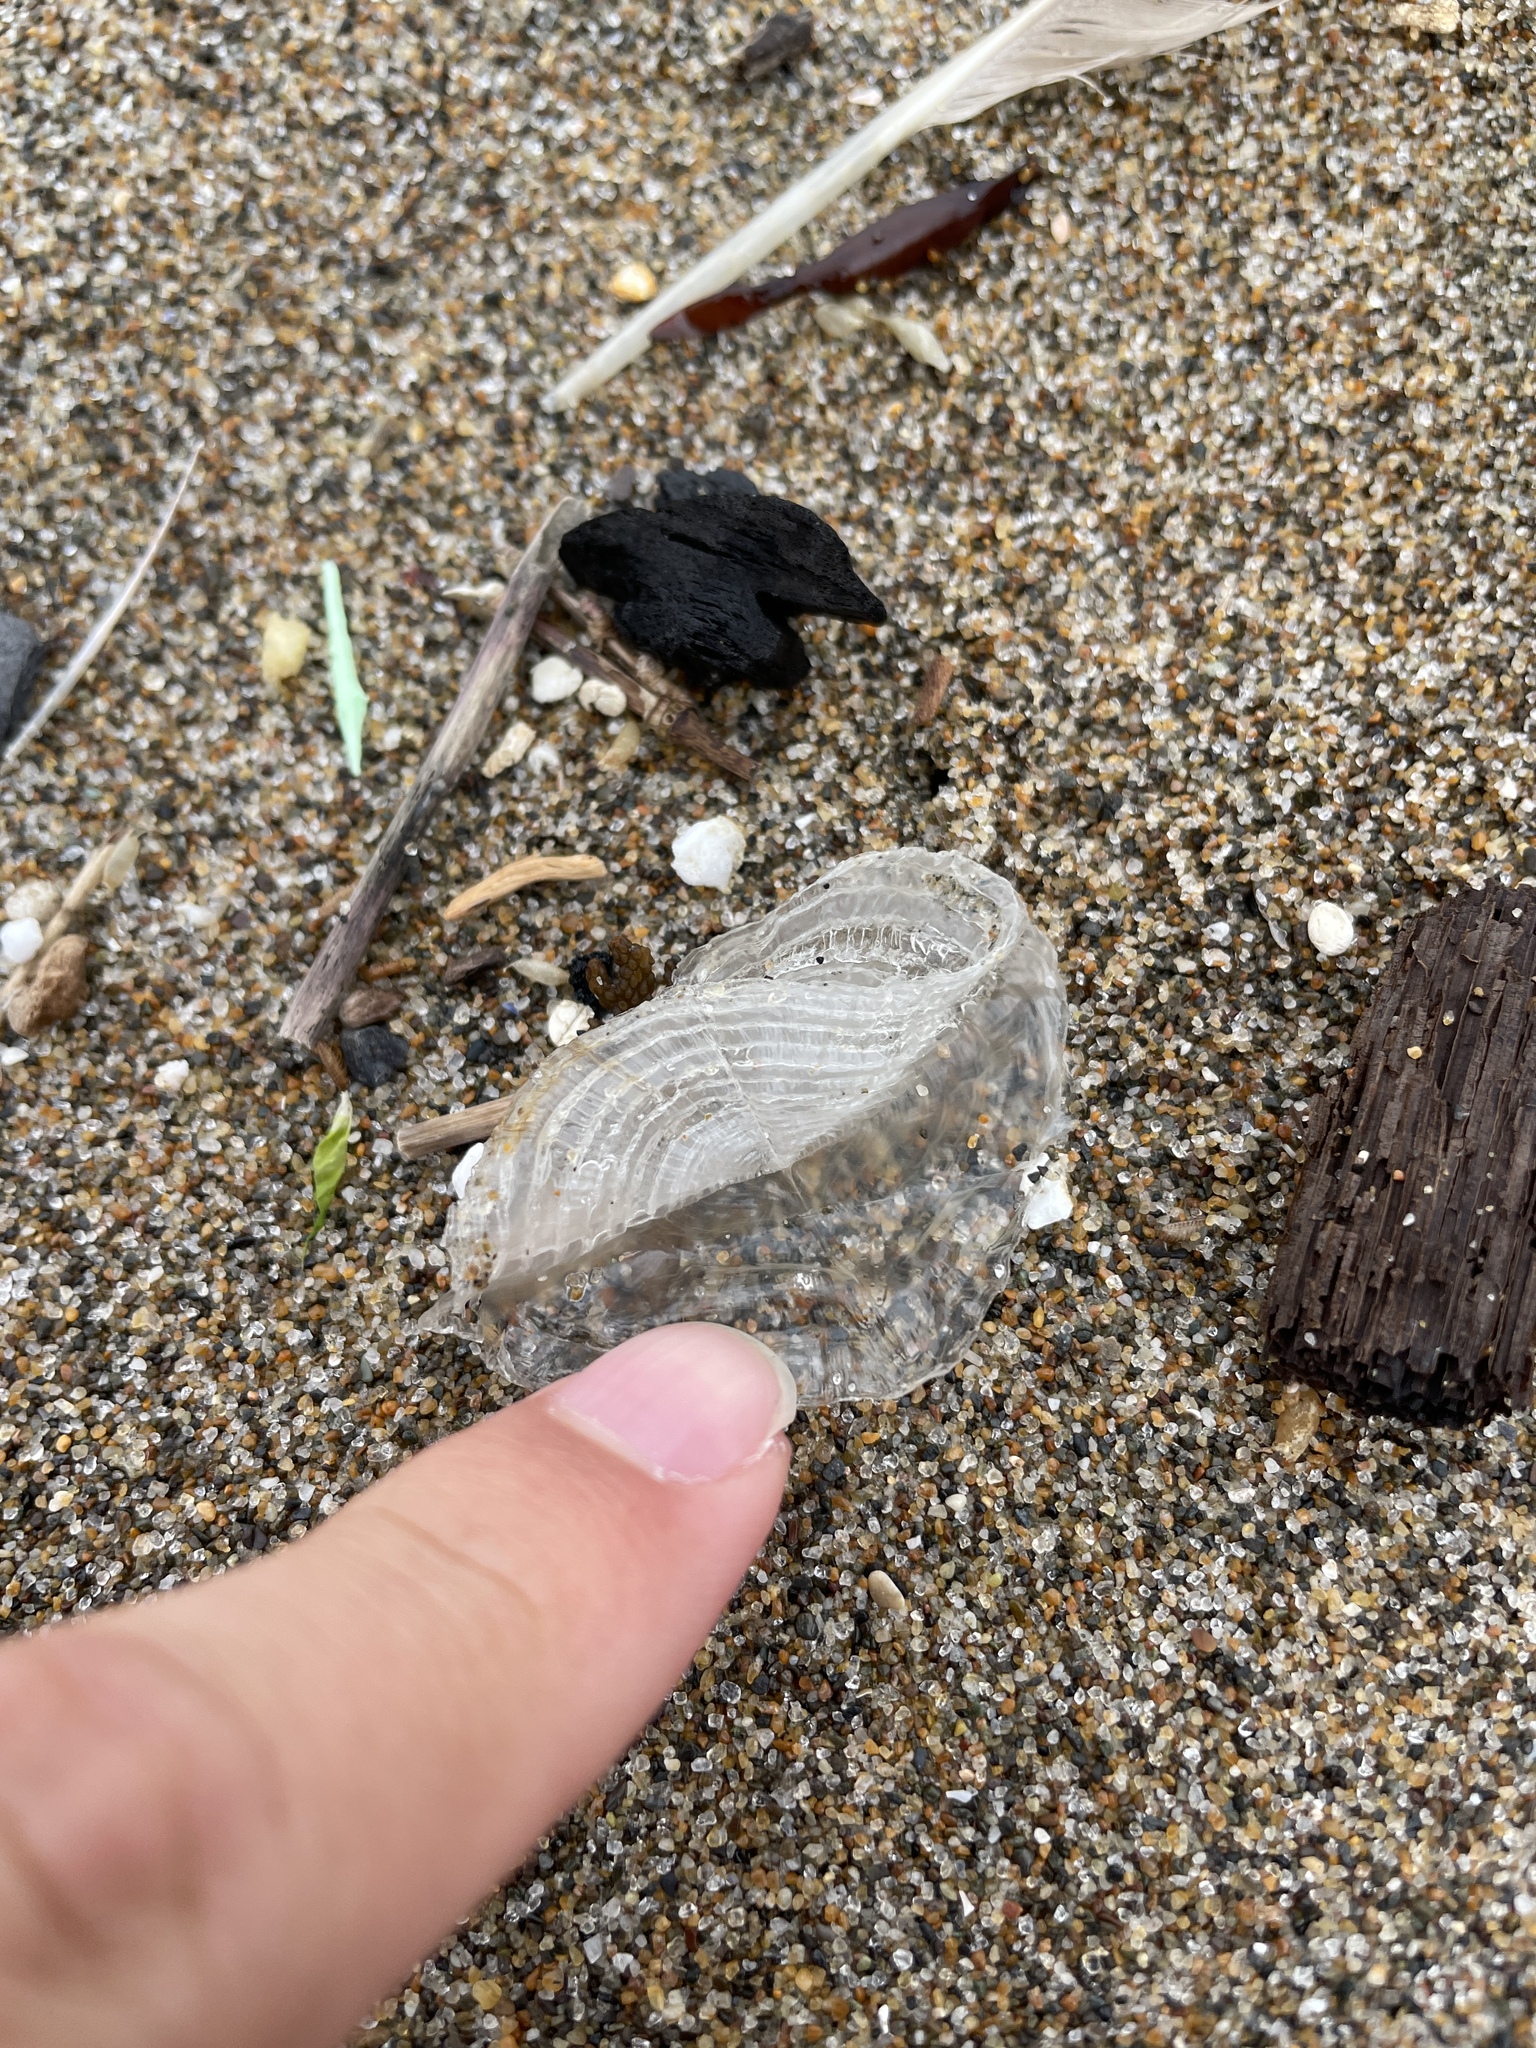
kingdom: Animalia
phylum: Cnidaria
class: Hydrozoa
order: Anthoathecata
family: Porpitidae
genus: Velella
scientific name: Velella velella
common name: By-the-wind-sailor
